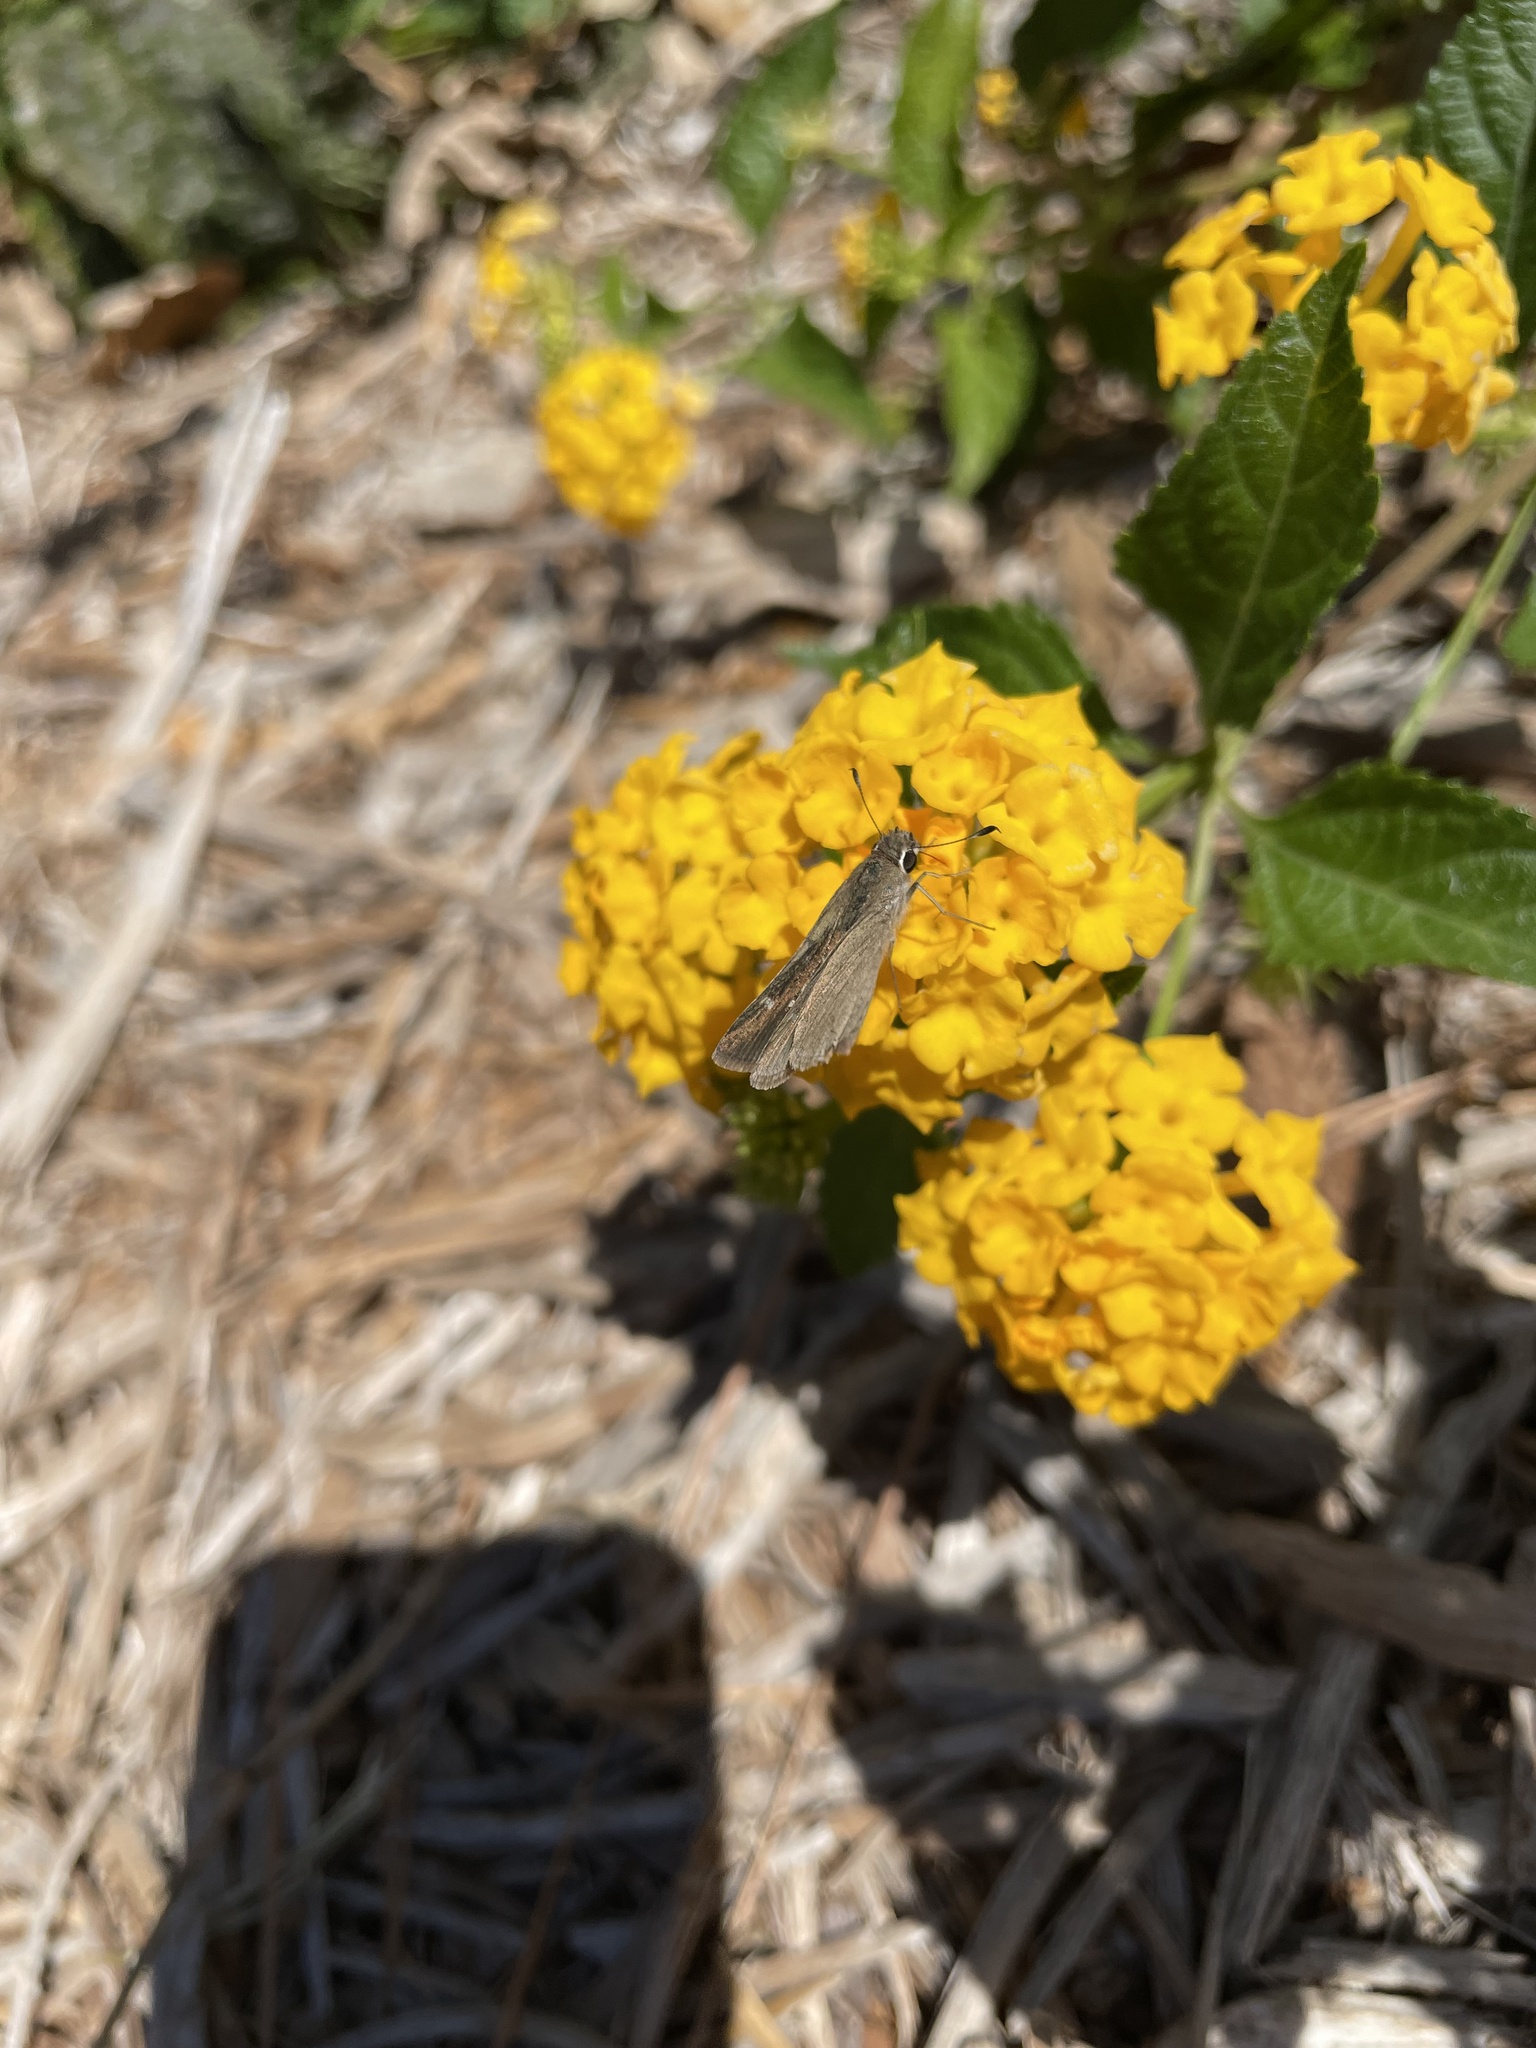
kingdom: Animalia
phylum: Arthropoda
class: Insecta
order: Lepidoptera
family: Hesperiidae
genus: Lerodea
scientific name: Lerodea eufala
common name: Eufala skipper
